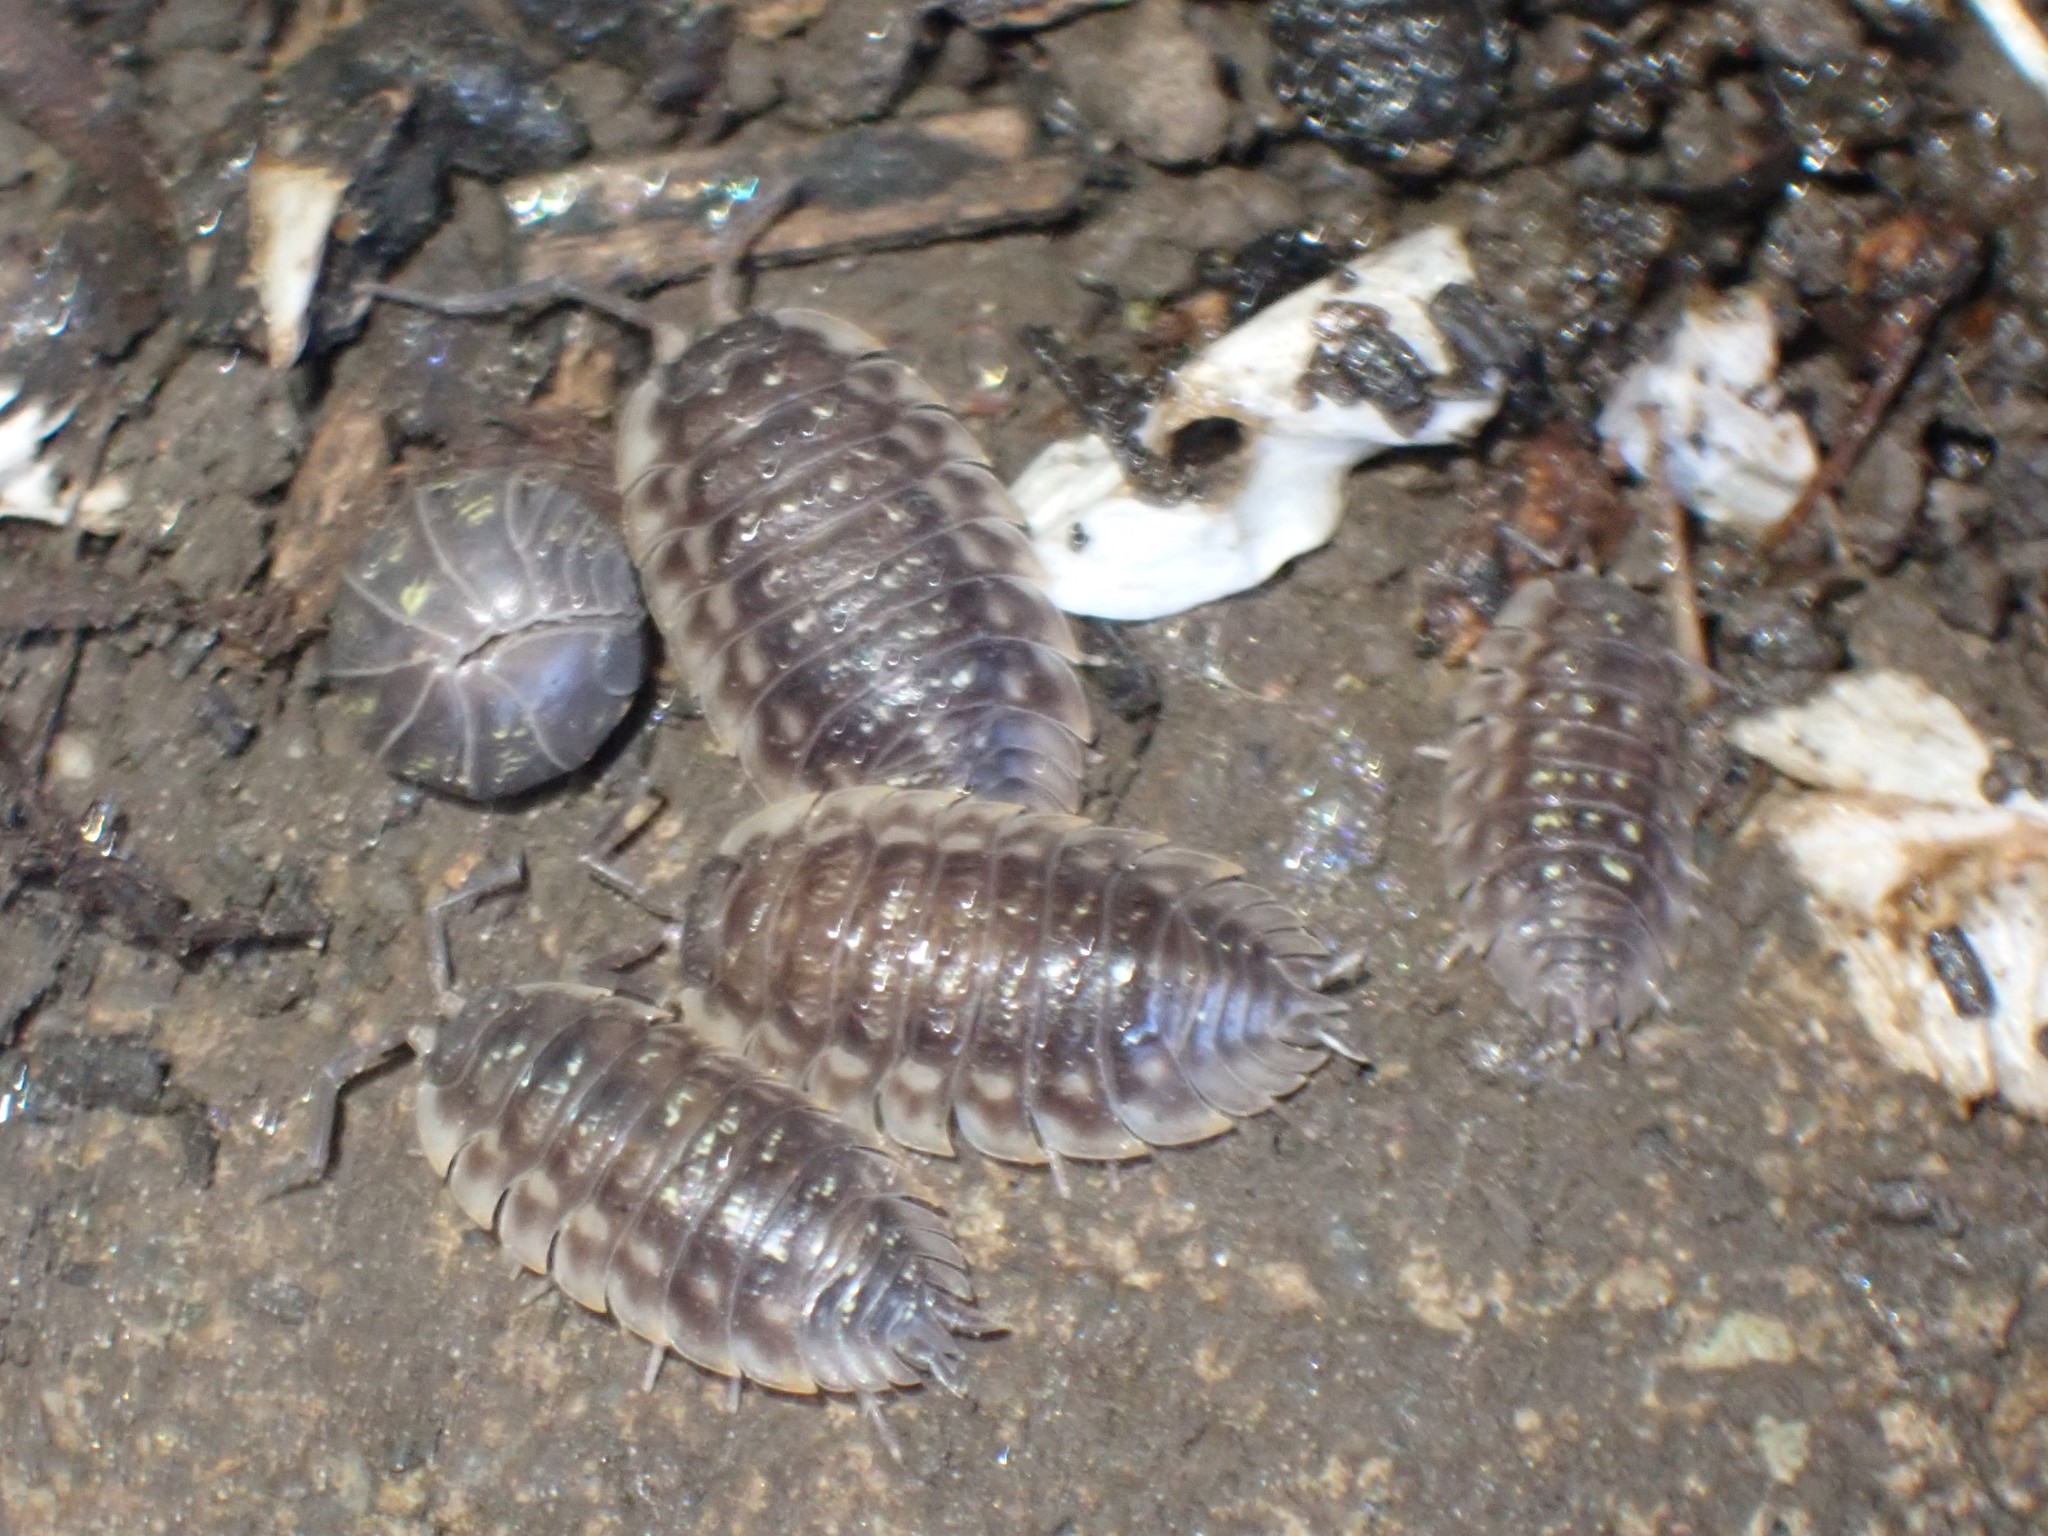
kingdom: Animalia
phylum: Arthropoda
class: Malacostraca
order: Isopoda
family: Oniscidae
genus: Oniscus
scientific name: Oniscus asellus
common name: Common shiny woodlouse
